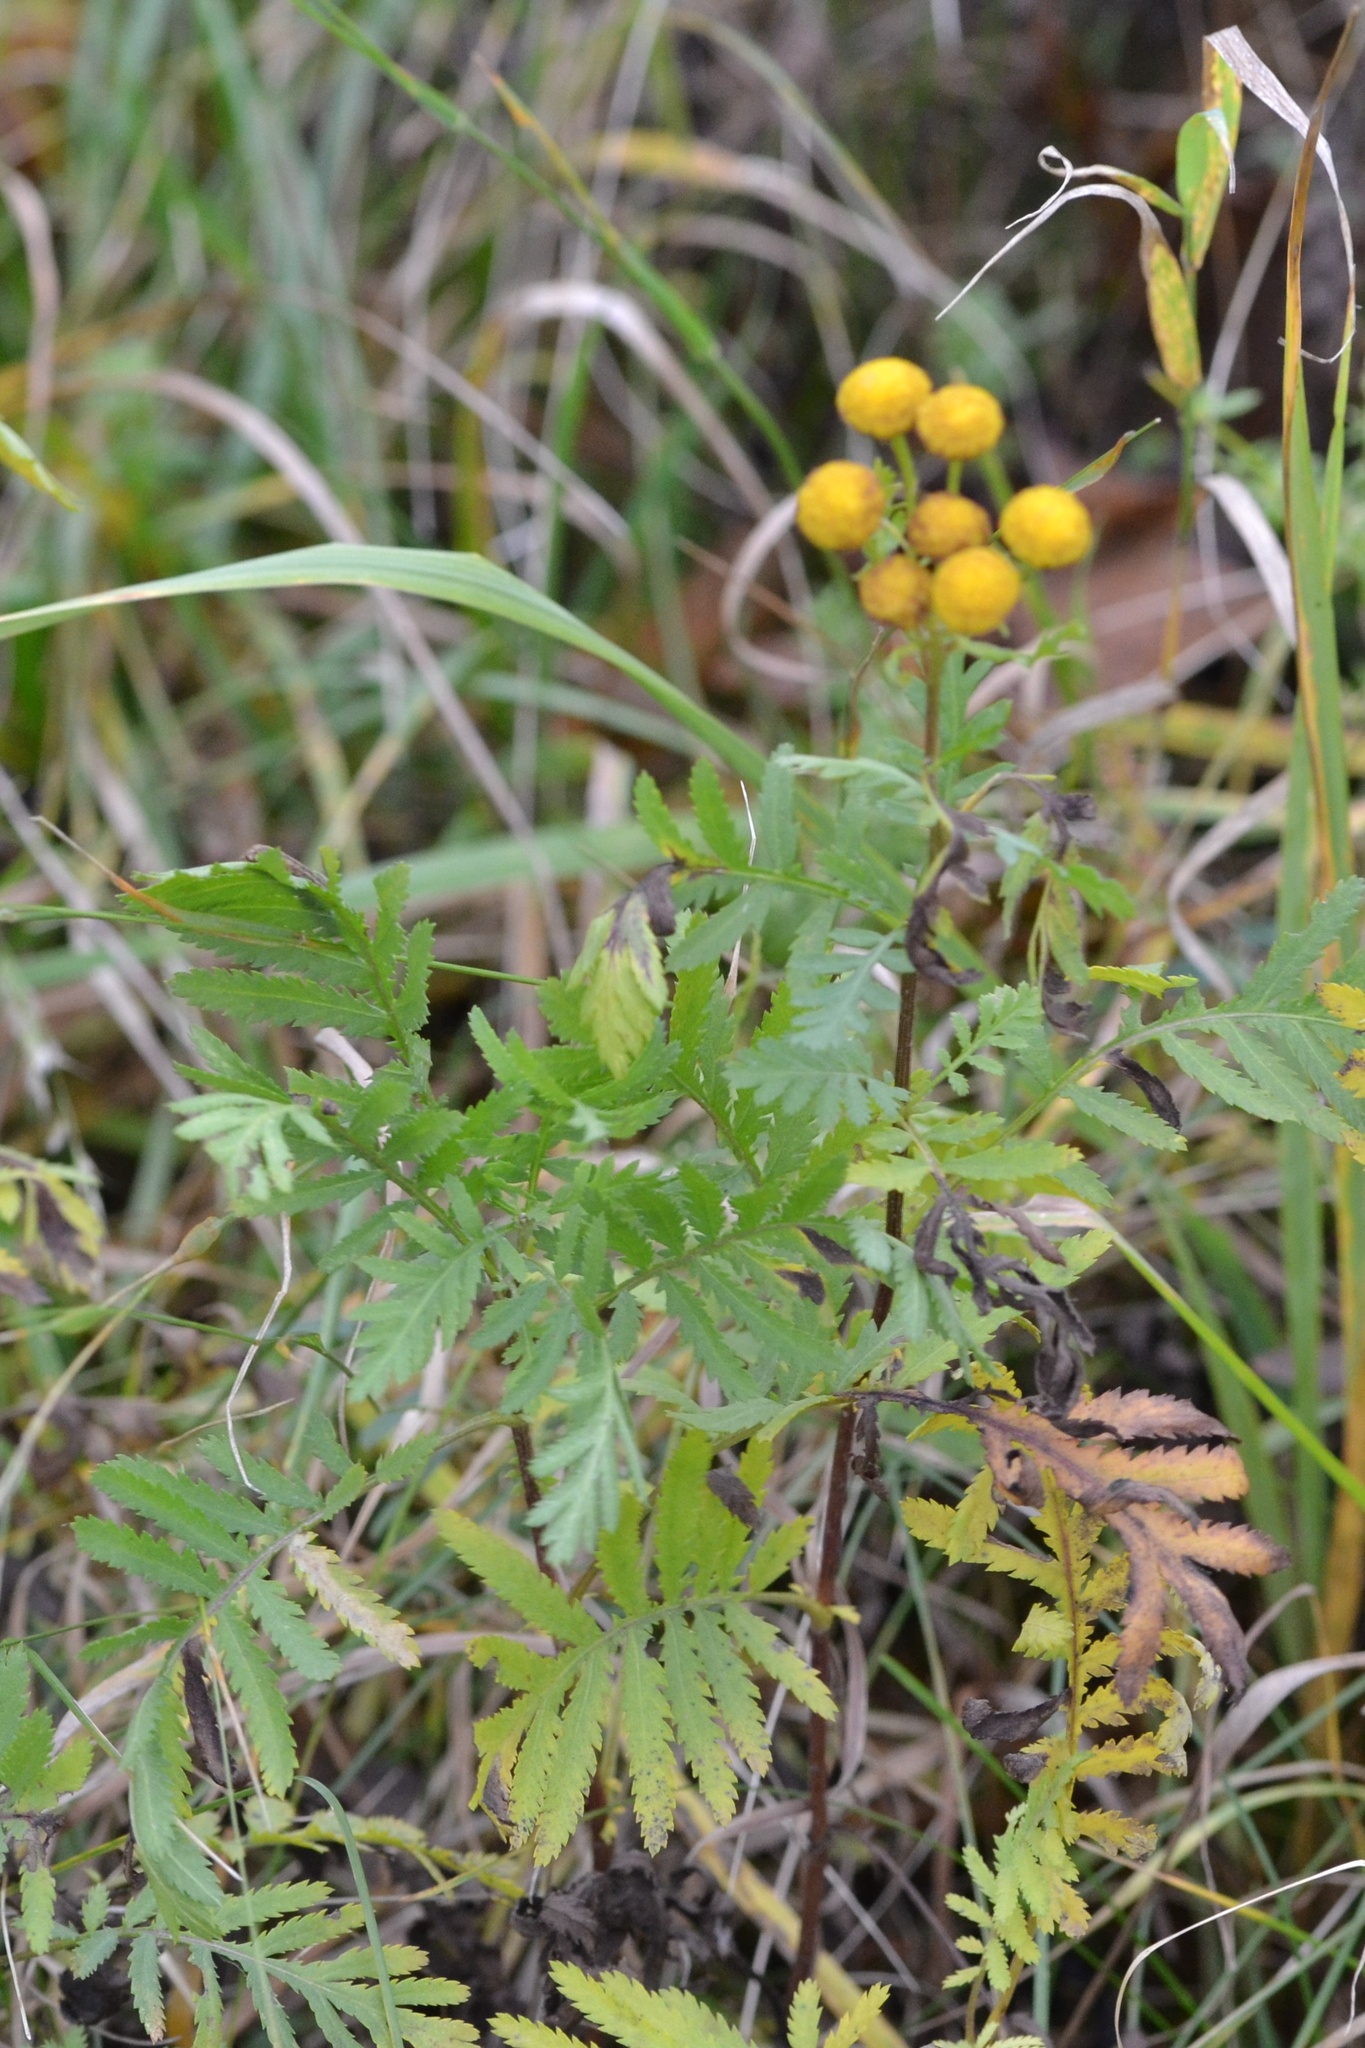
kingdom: Plantae
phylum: Tracheophyta
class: Magnoliopsida
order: Asterales
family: Asteraceae
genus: Tanacetum
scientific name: Tanacetum vulgare
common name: Common tansy
